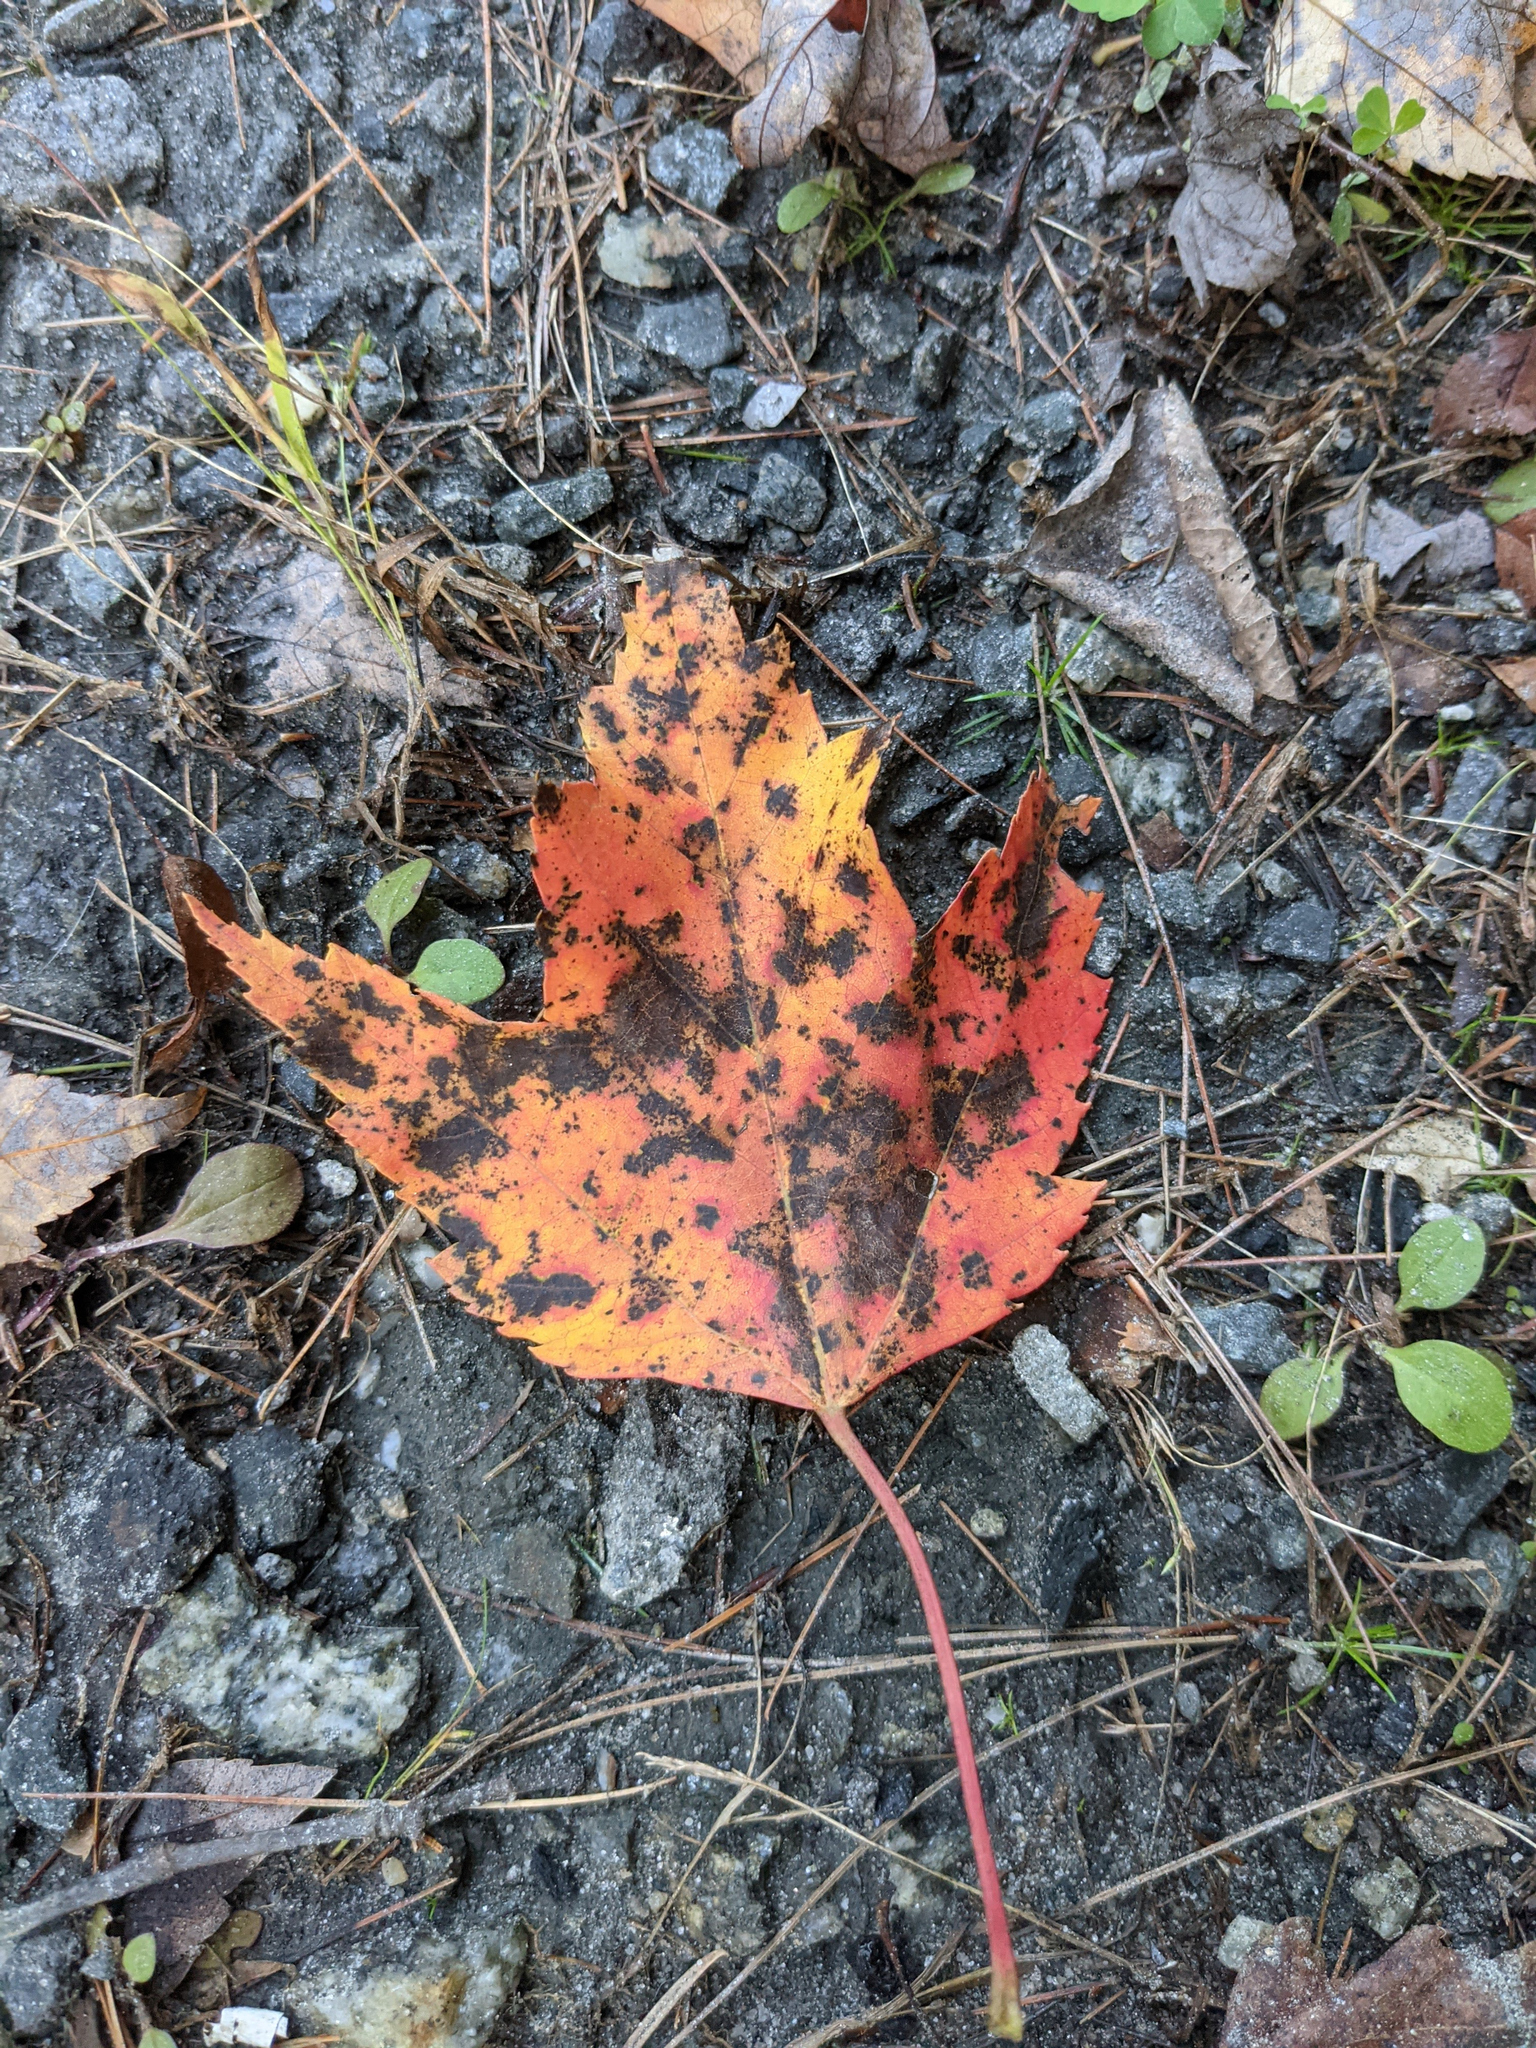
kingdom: Plantae
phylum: Tracheophyta
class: Magnoliopsida
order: Sapindales
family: Sapindaceae
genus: Acer
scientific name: Acer rubrum
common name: Red maple
